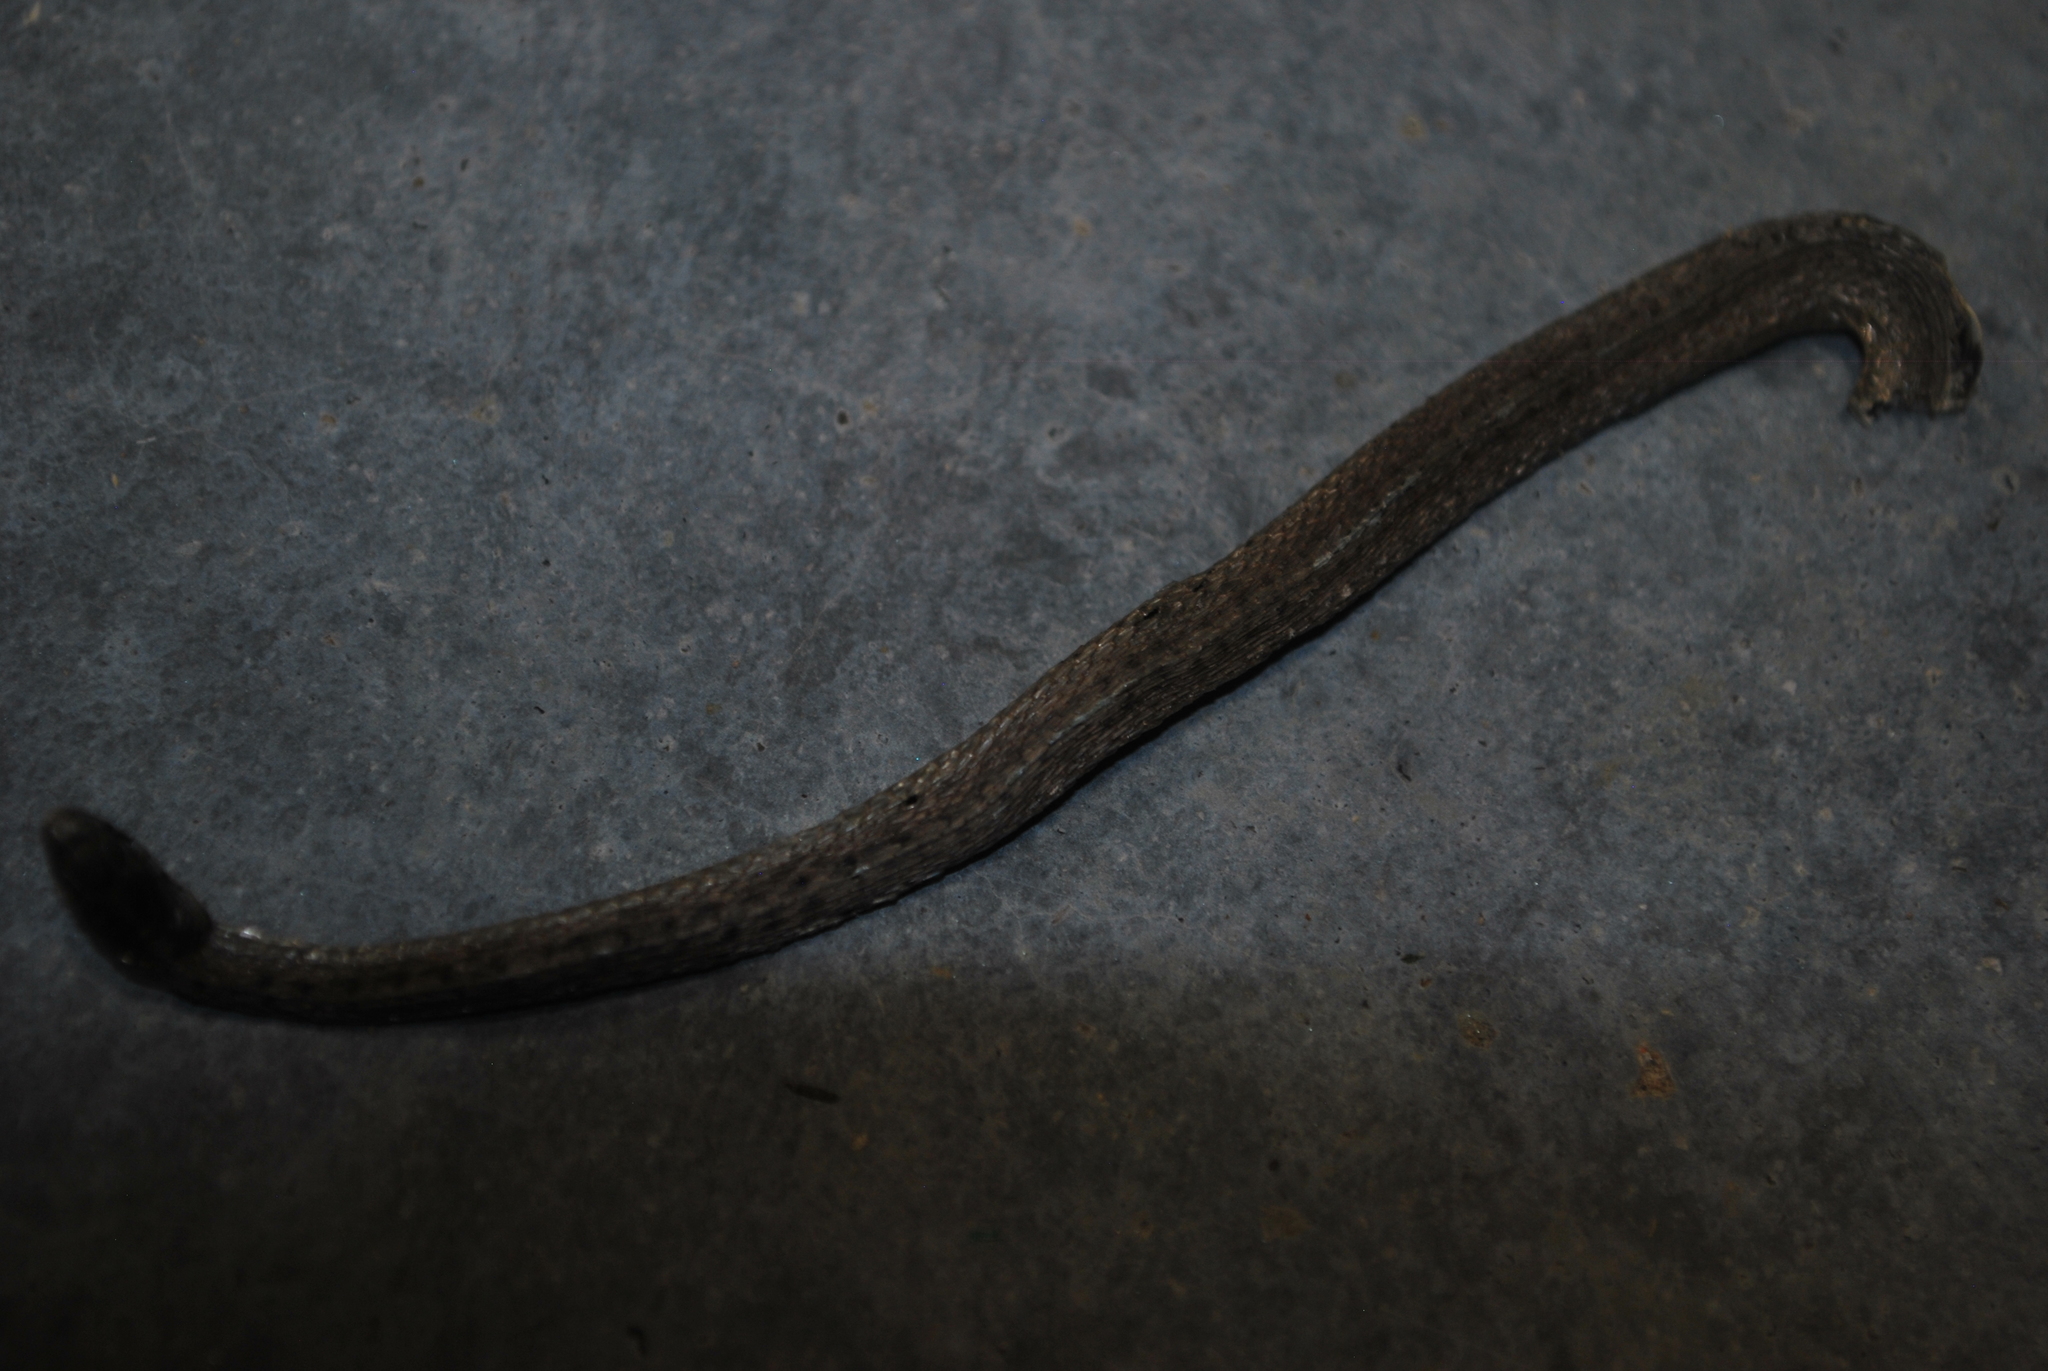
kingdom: Animalia
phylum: Chordata
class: Squamata
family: Colubridae
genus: Storeria
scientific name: Storeria dekayi
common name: (dekay’s) brown snake
